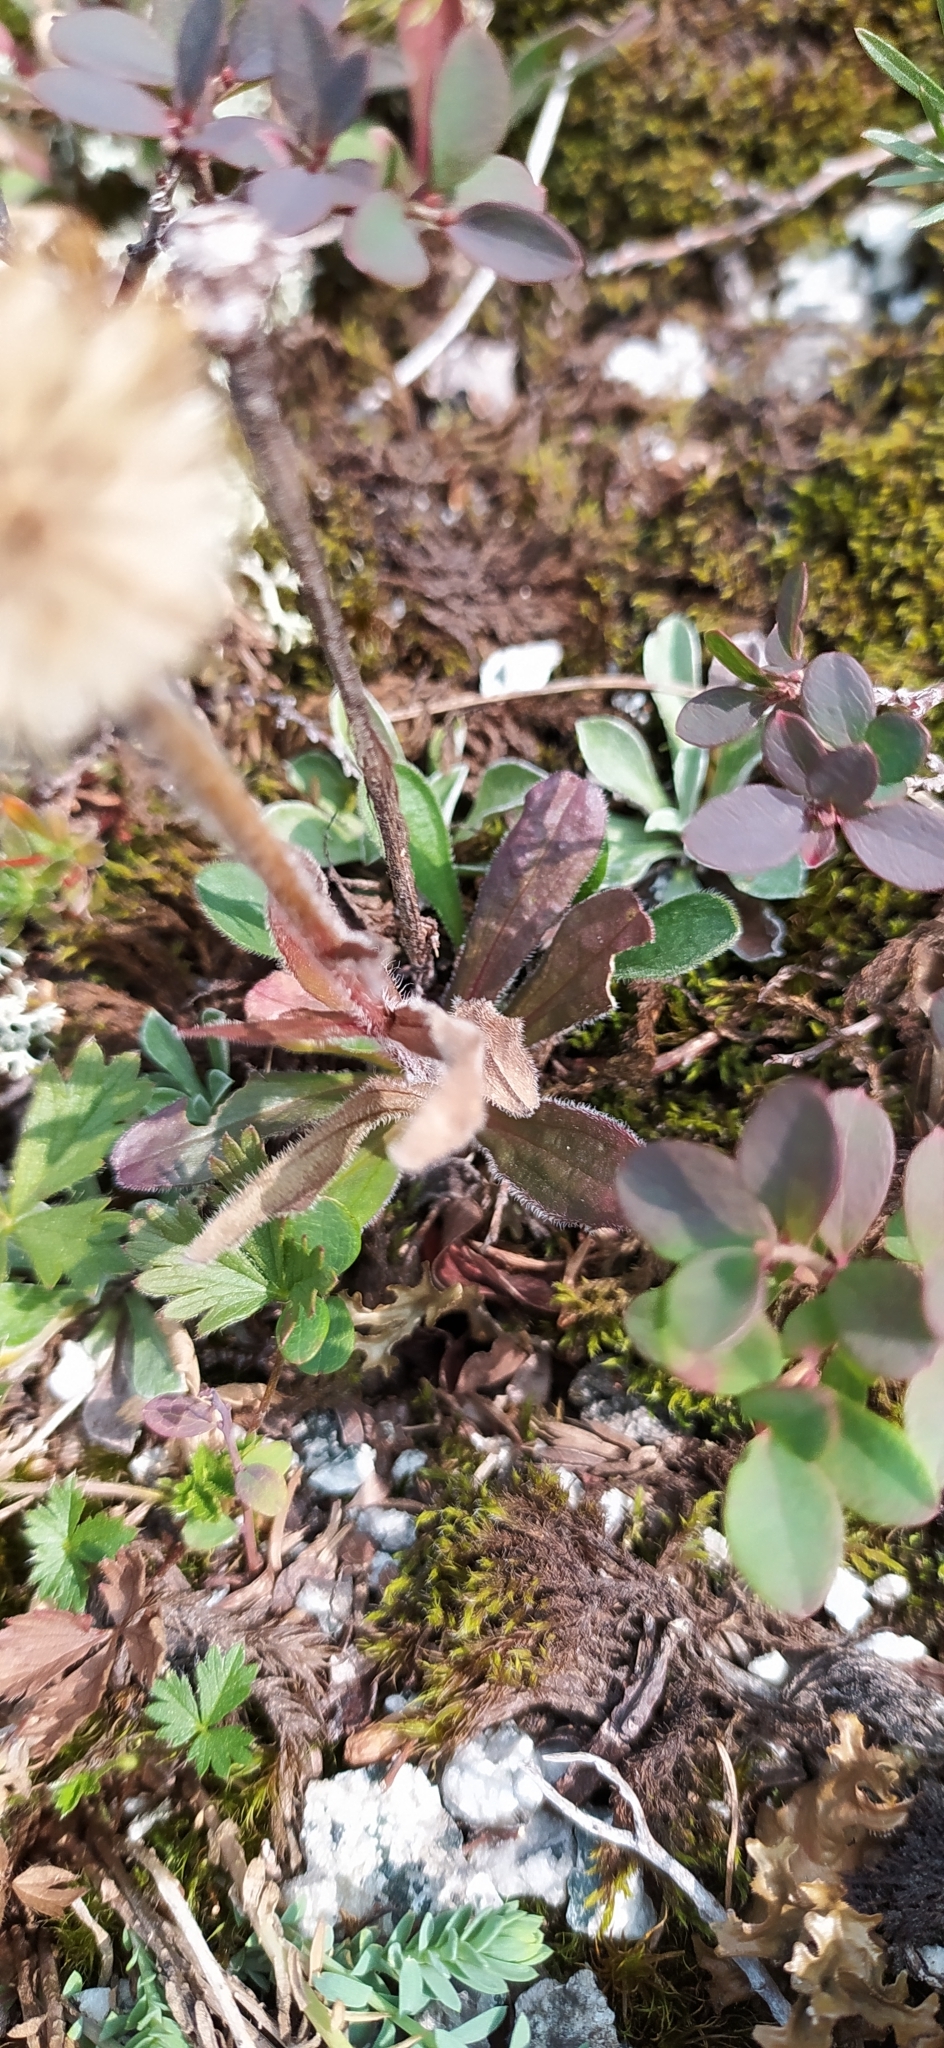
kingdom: Plantae
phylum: Tracheophyta
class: Magnoliopsida
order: Asterales
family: Asteraceae
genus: Aster
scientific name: Aster alpinus
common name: Alpine aster
